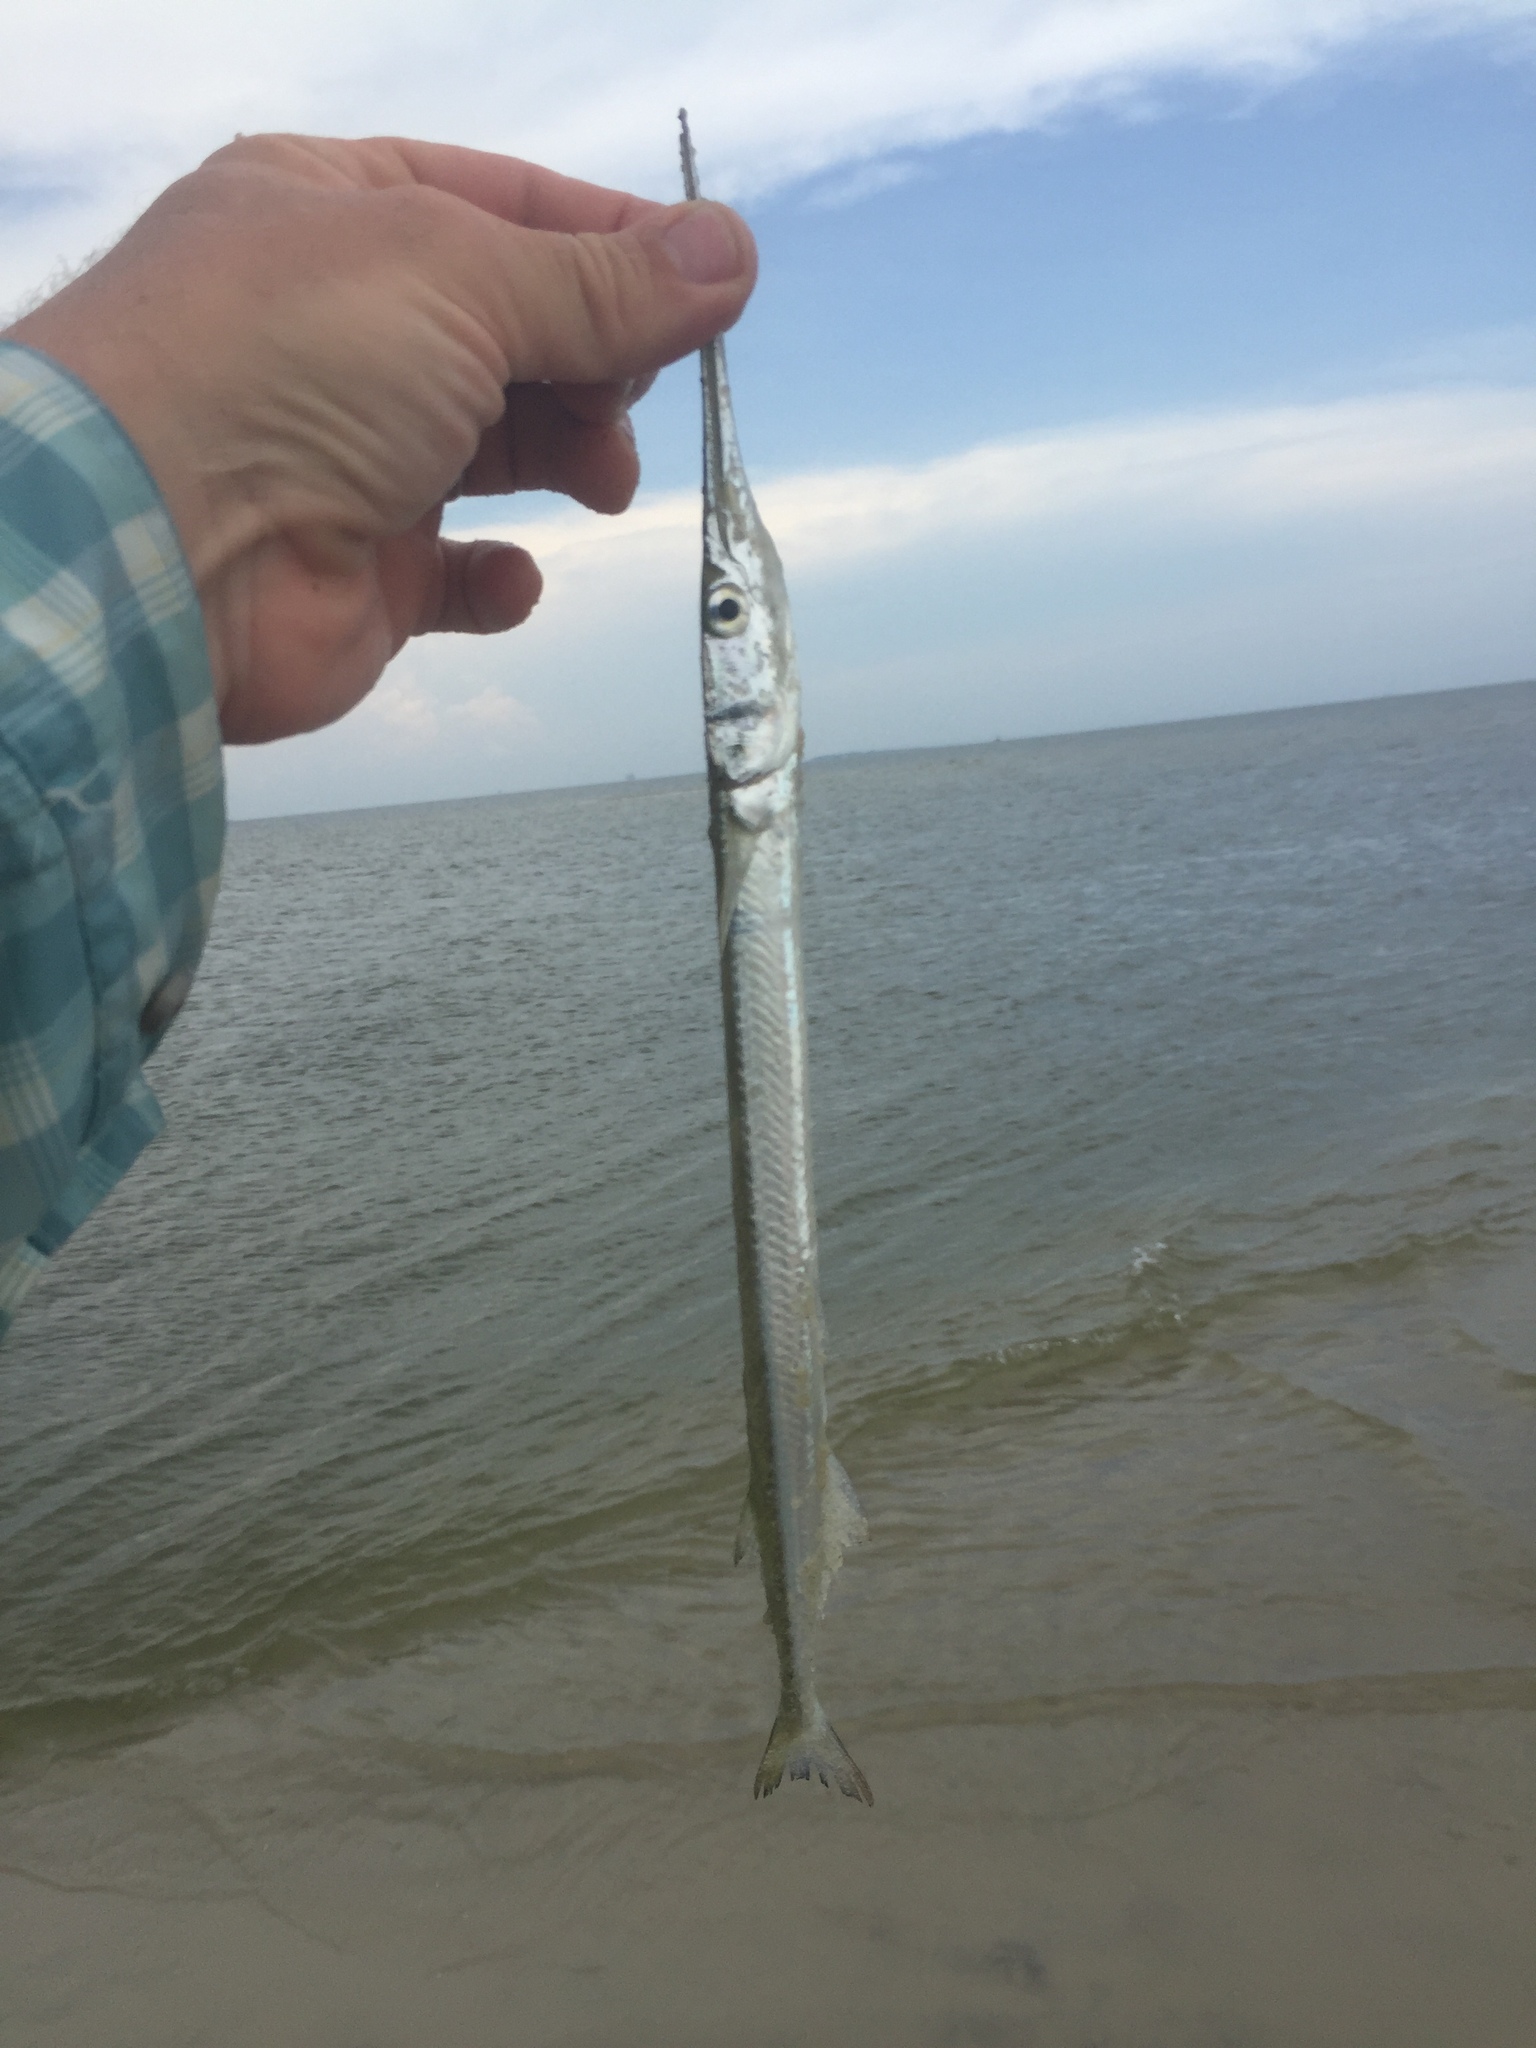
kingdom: Animalia
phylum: Chordata
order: Beloniformes
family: Belonidae
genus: Strongylura
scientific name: Strongylura marina
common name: Atlantic needlefish
